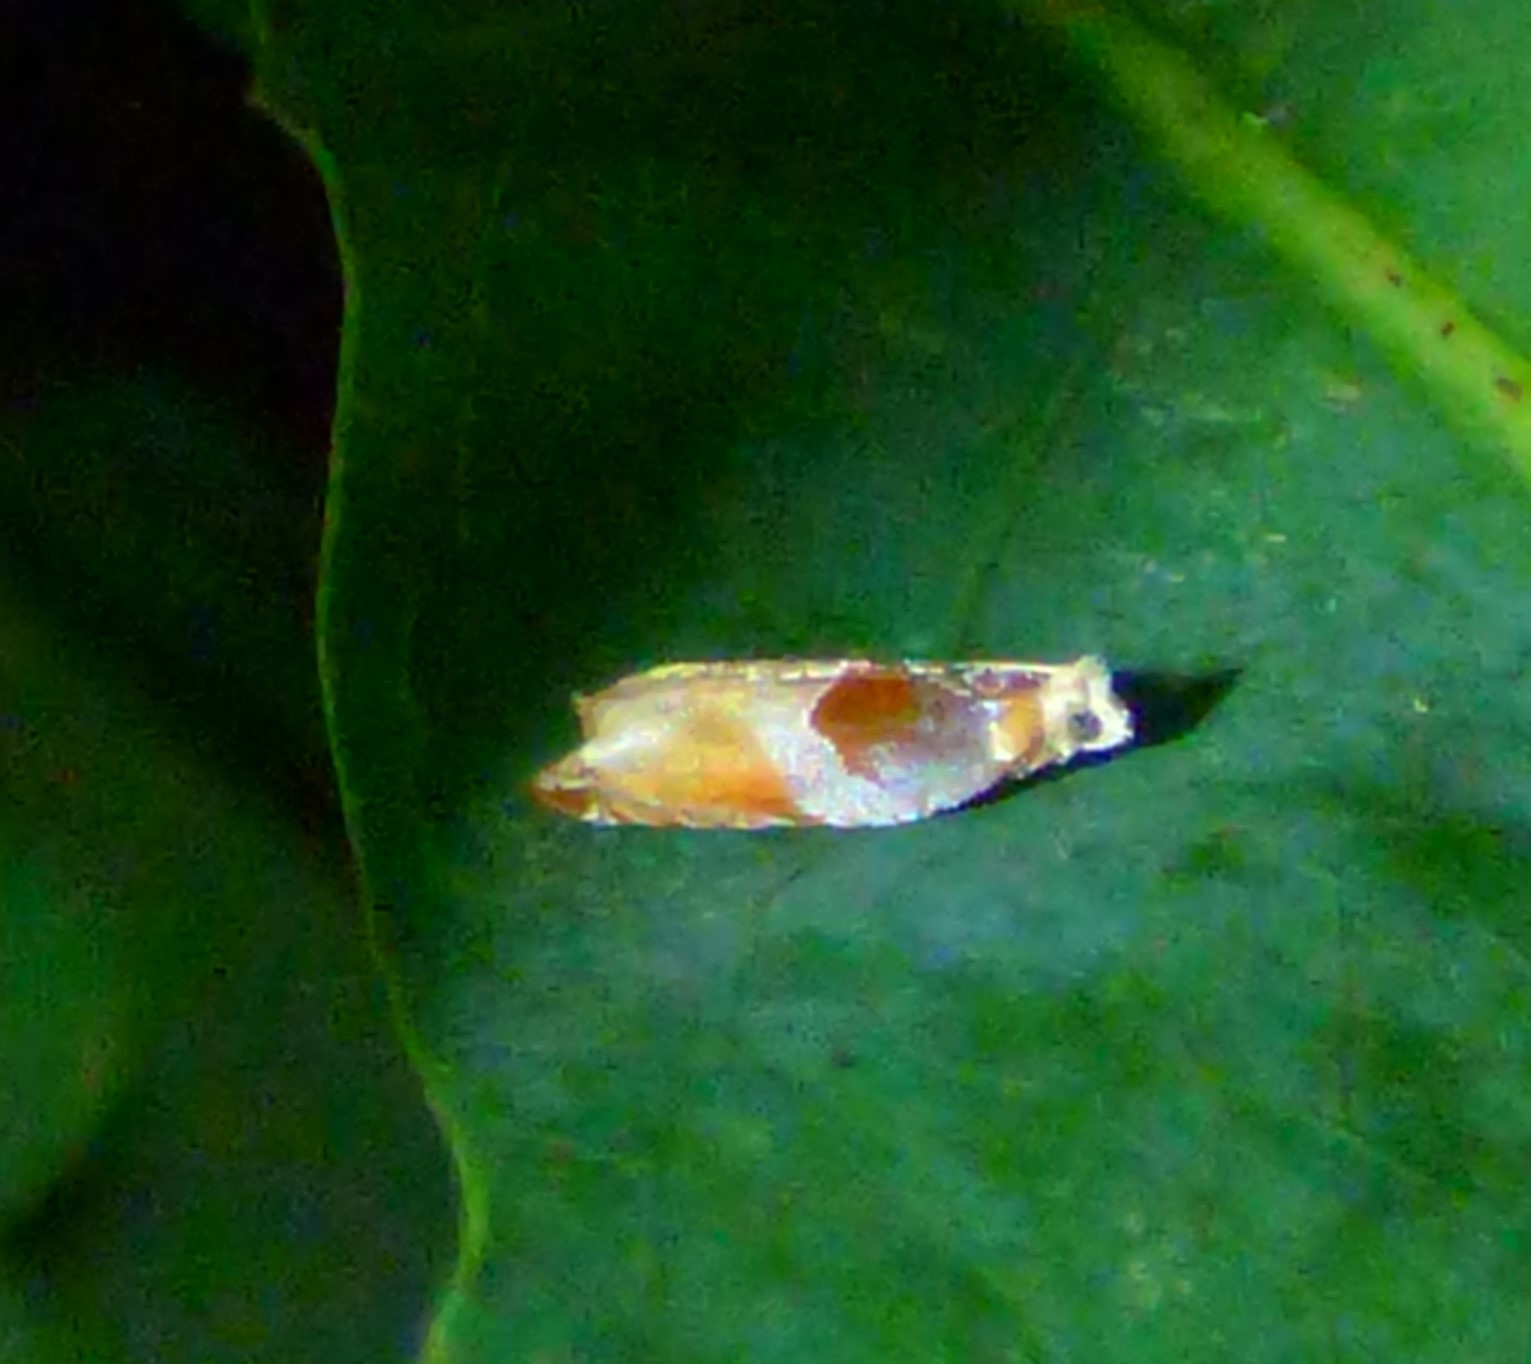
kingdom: Animalia
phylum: Arthropoda
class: Insecta
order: Lepidoptera
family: Tortricidae
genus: Ancylis
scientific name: Ancylis divisana
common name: Two-toned ancylis moth
